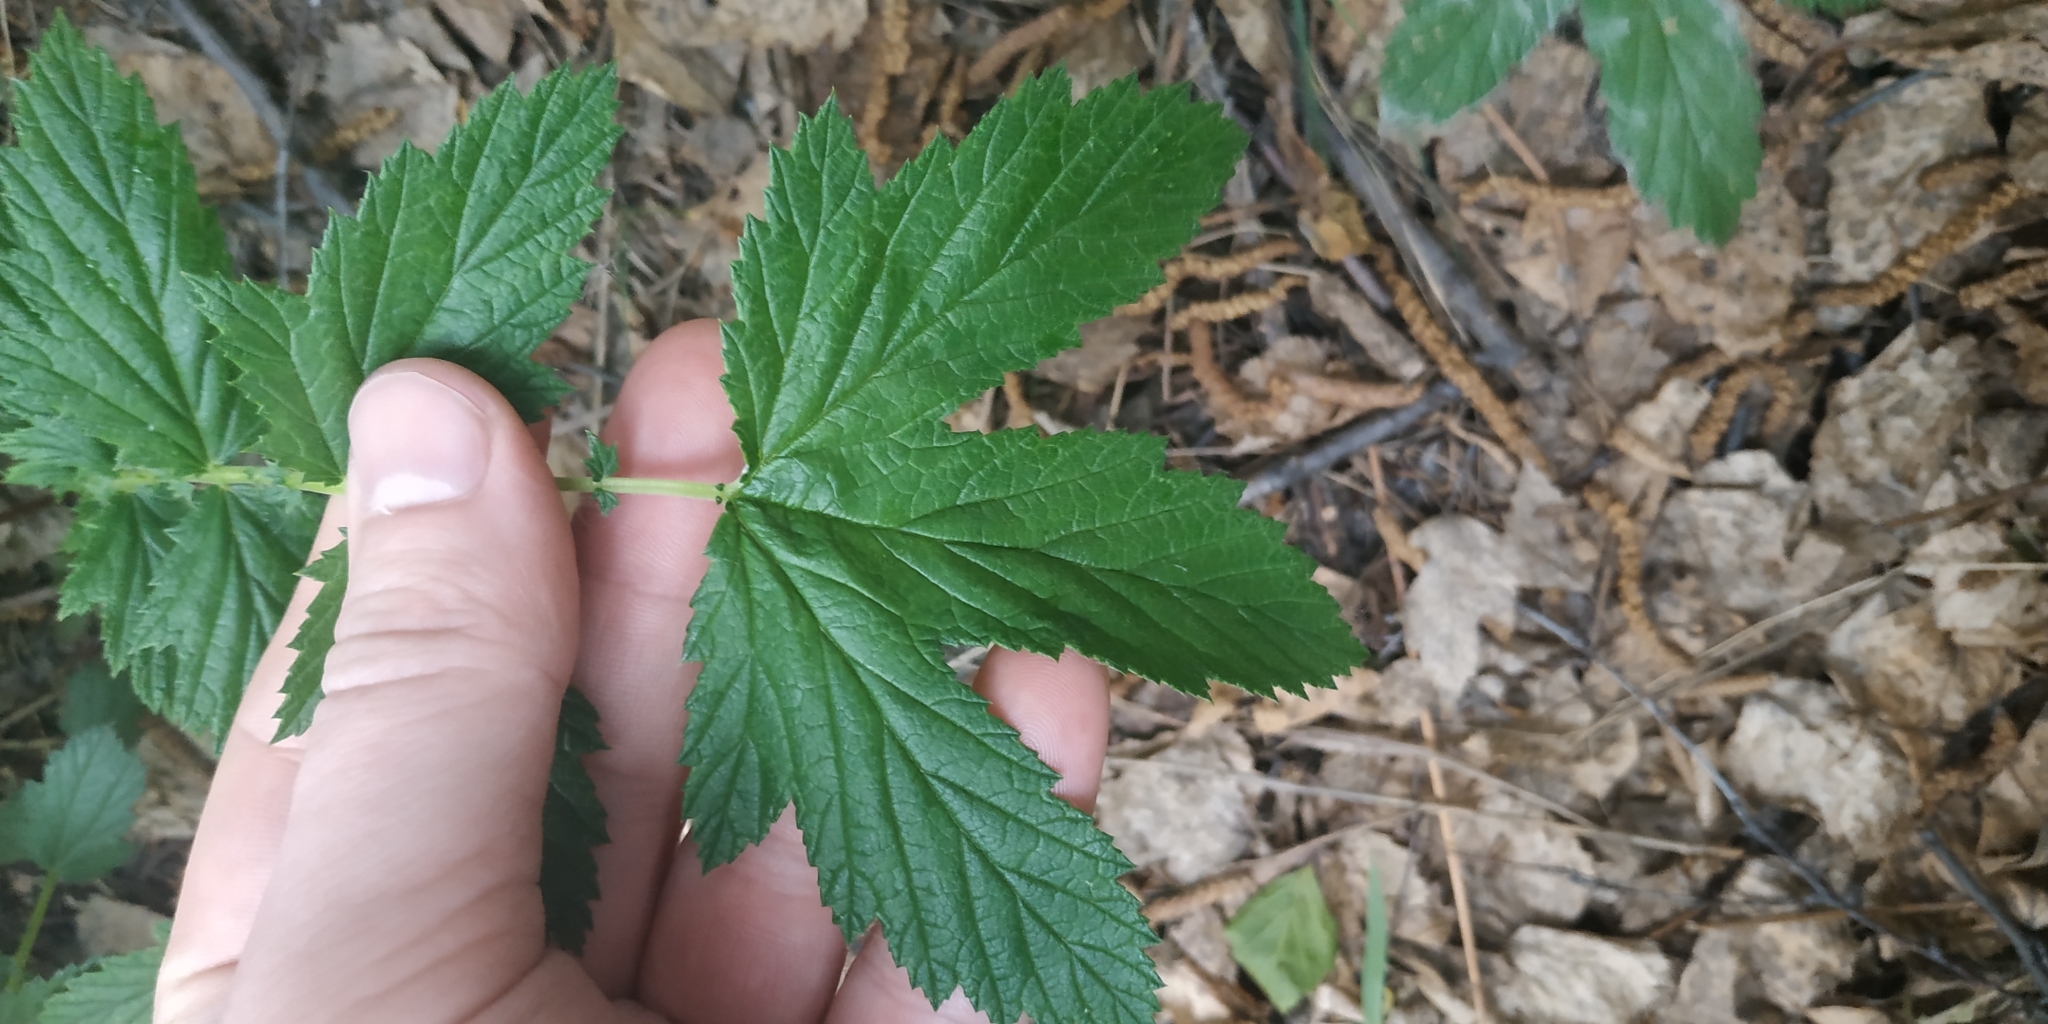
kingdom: Plantae
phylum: Tracheophyta
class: Magnoliopsida
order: Rosales
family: Rosaceae
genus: Filipendula
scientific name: Filipendula ulmaria
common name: Meadowsweet
